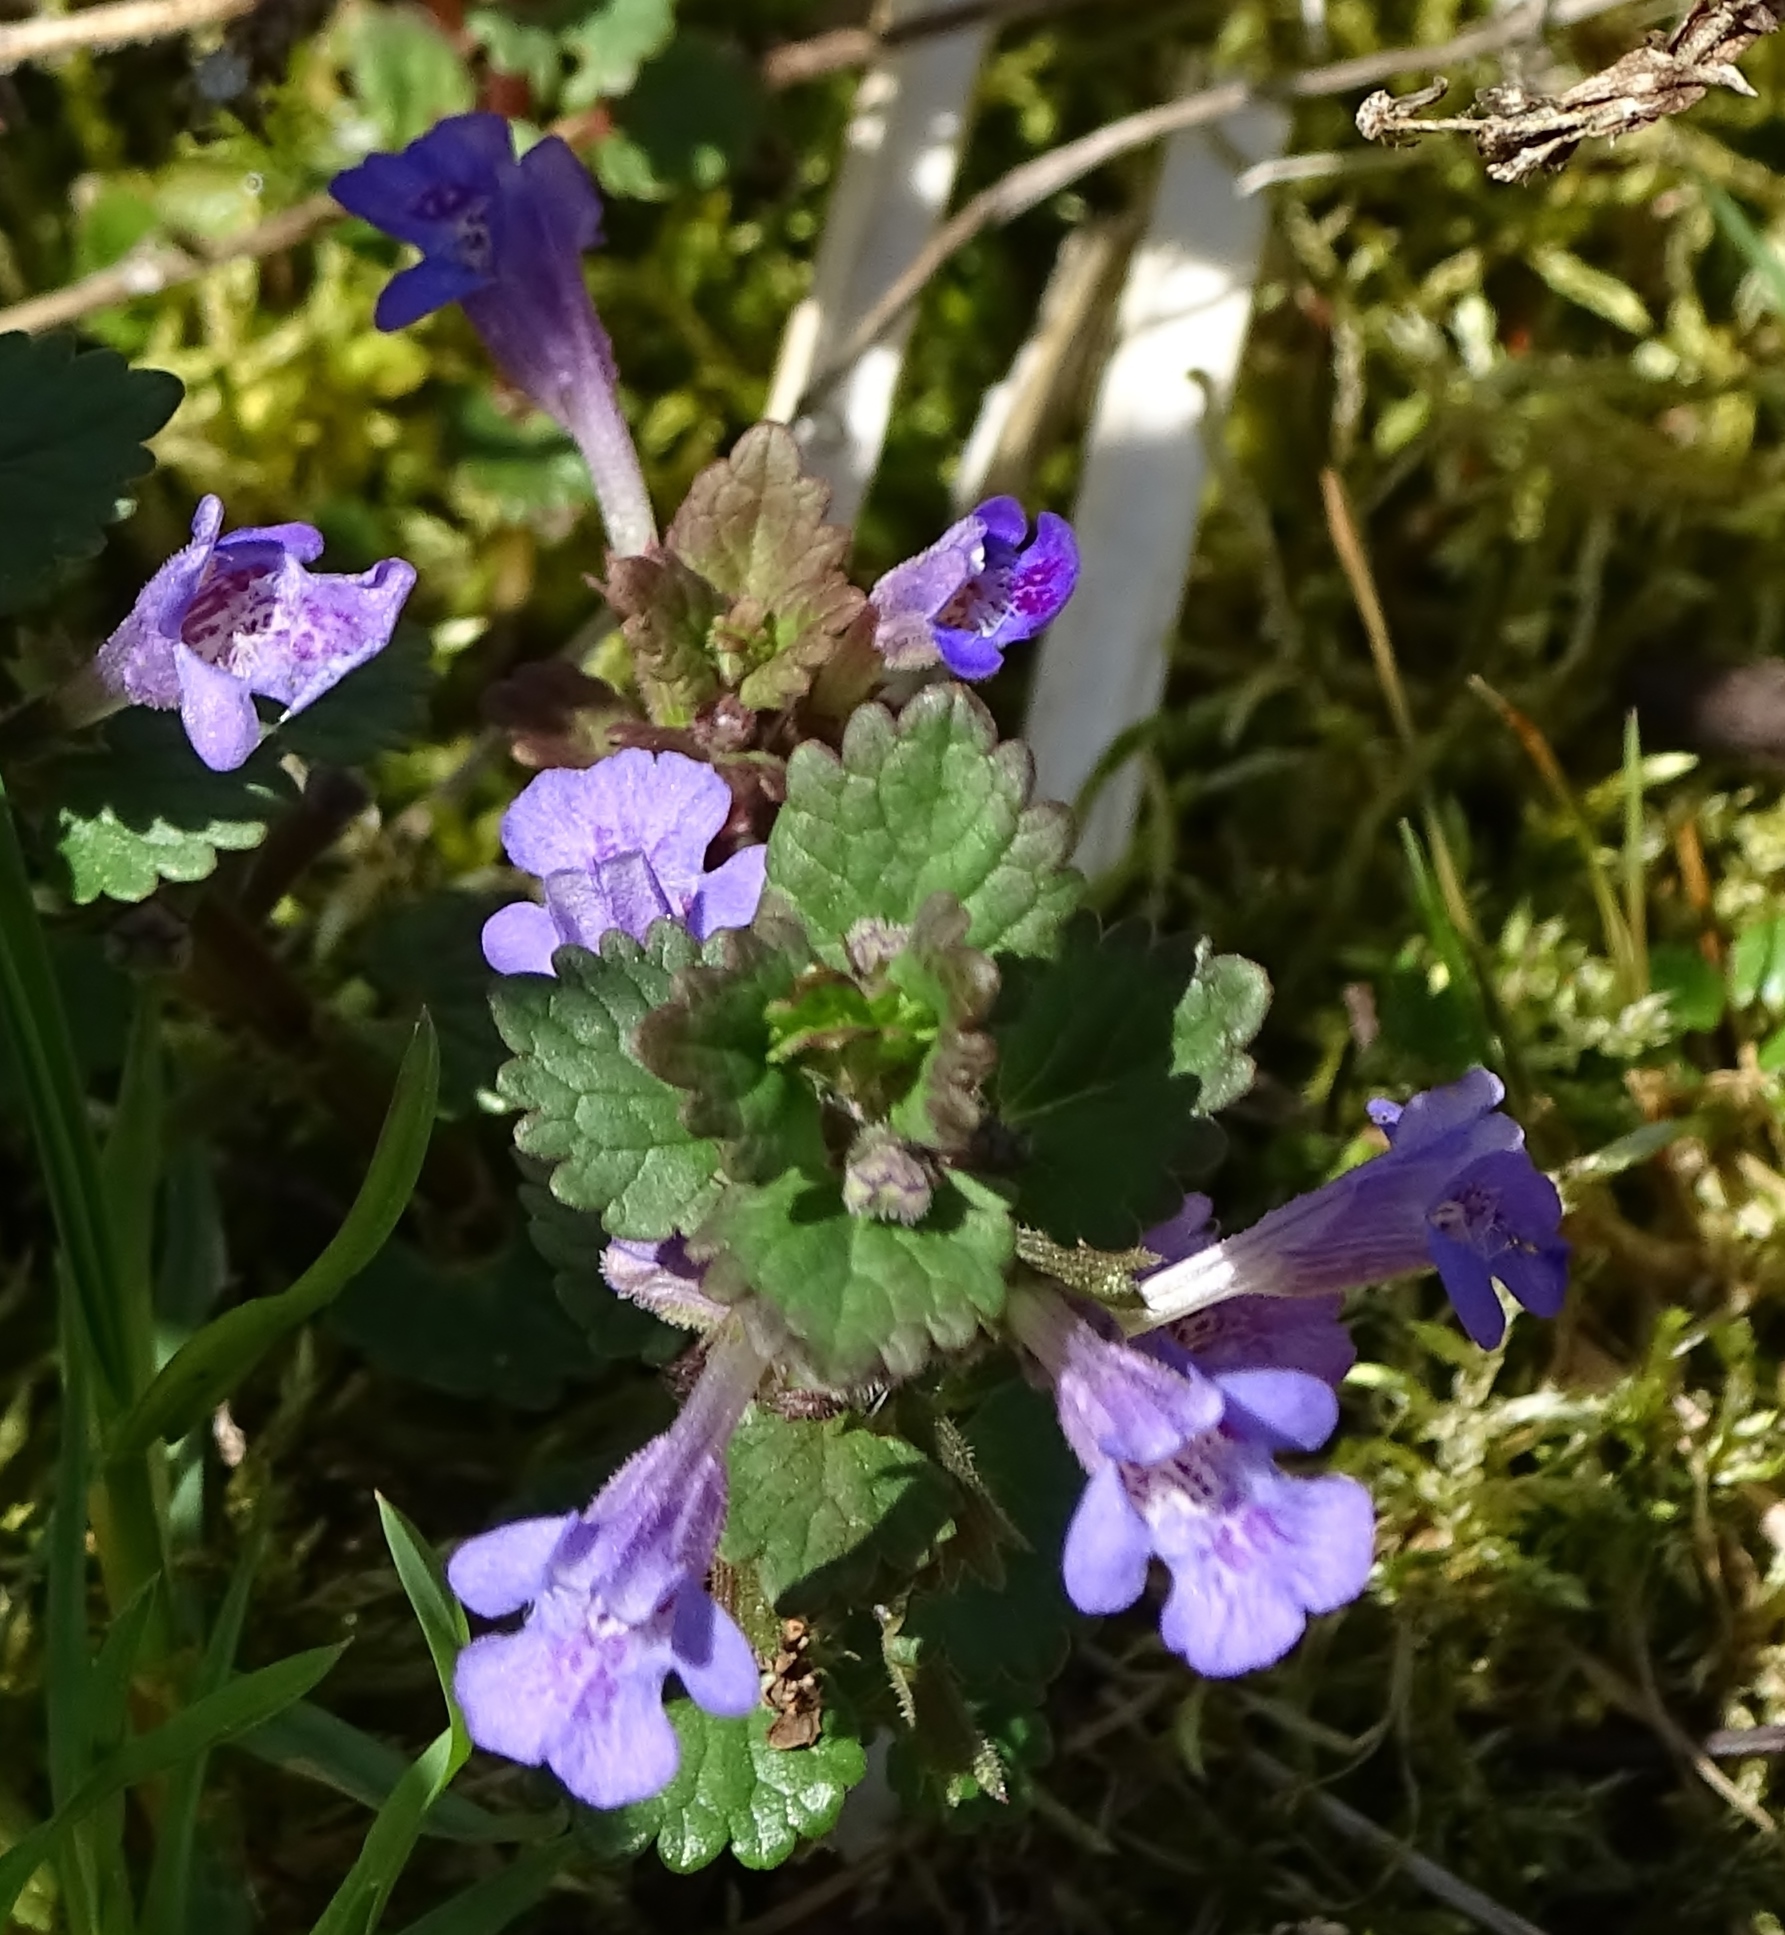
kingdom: Plantae
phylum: Tracheophyta
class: Magnoliopsida
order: Lamiales
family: Lamiaceae
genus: Glechoma
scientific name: Glechoma hederacea
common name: Ground ivy
